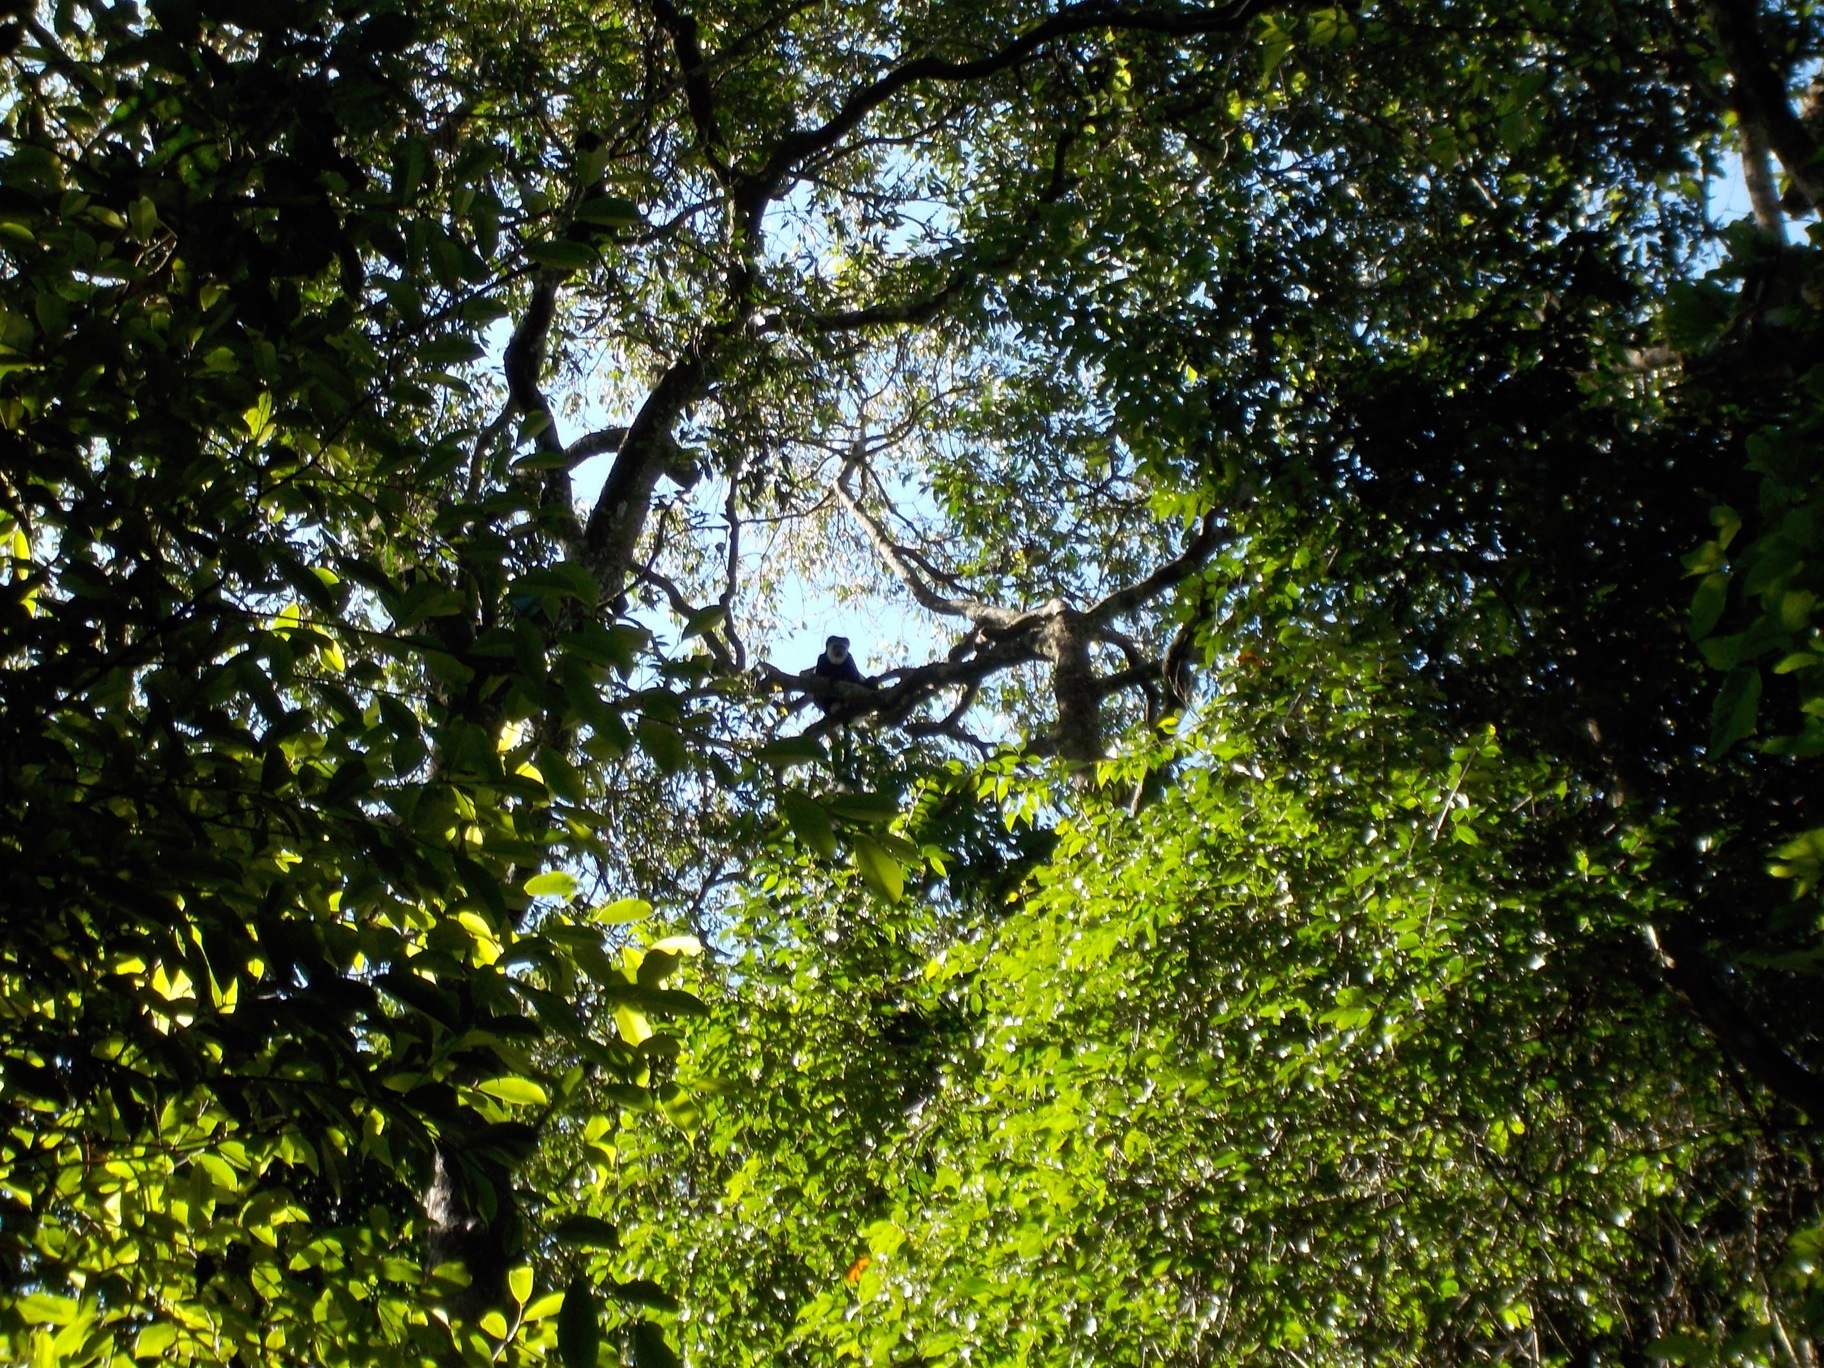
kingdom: Animalia
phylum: Chordata
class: Mammalia
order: Primates
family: Cercopithecidae
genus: Colobus
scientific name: Colobus guereza
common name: Mantled guereza
